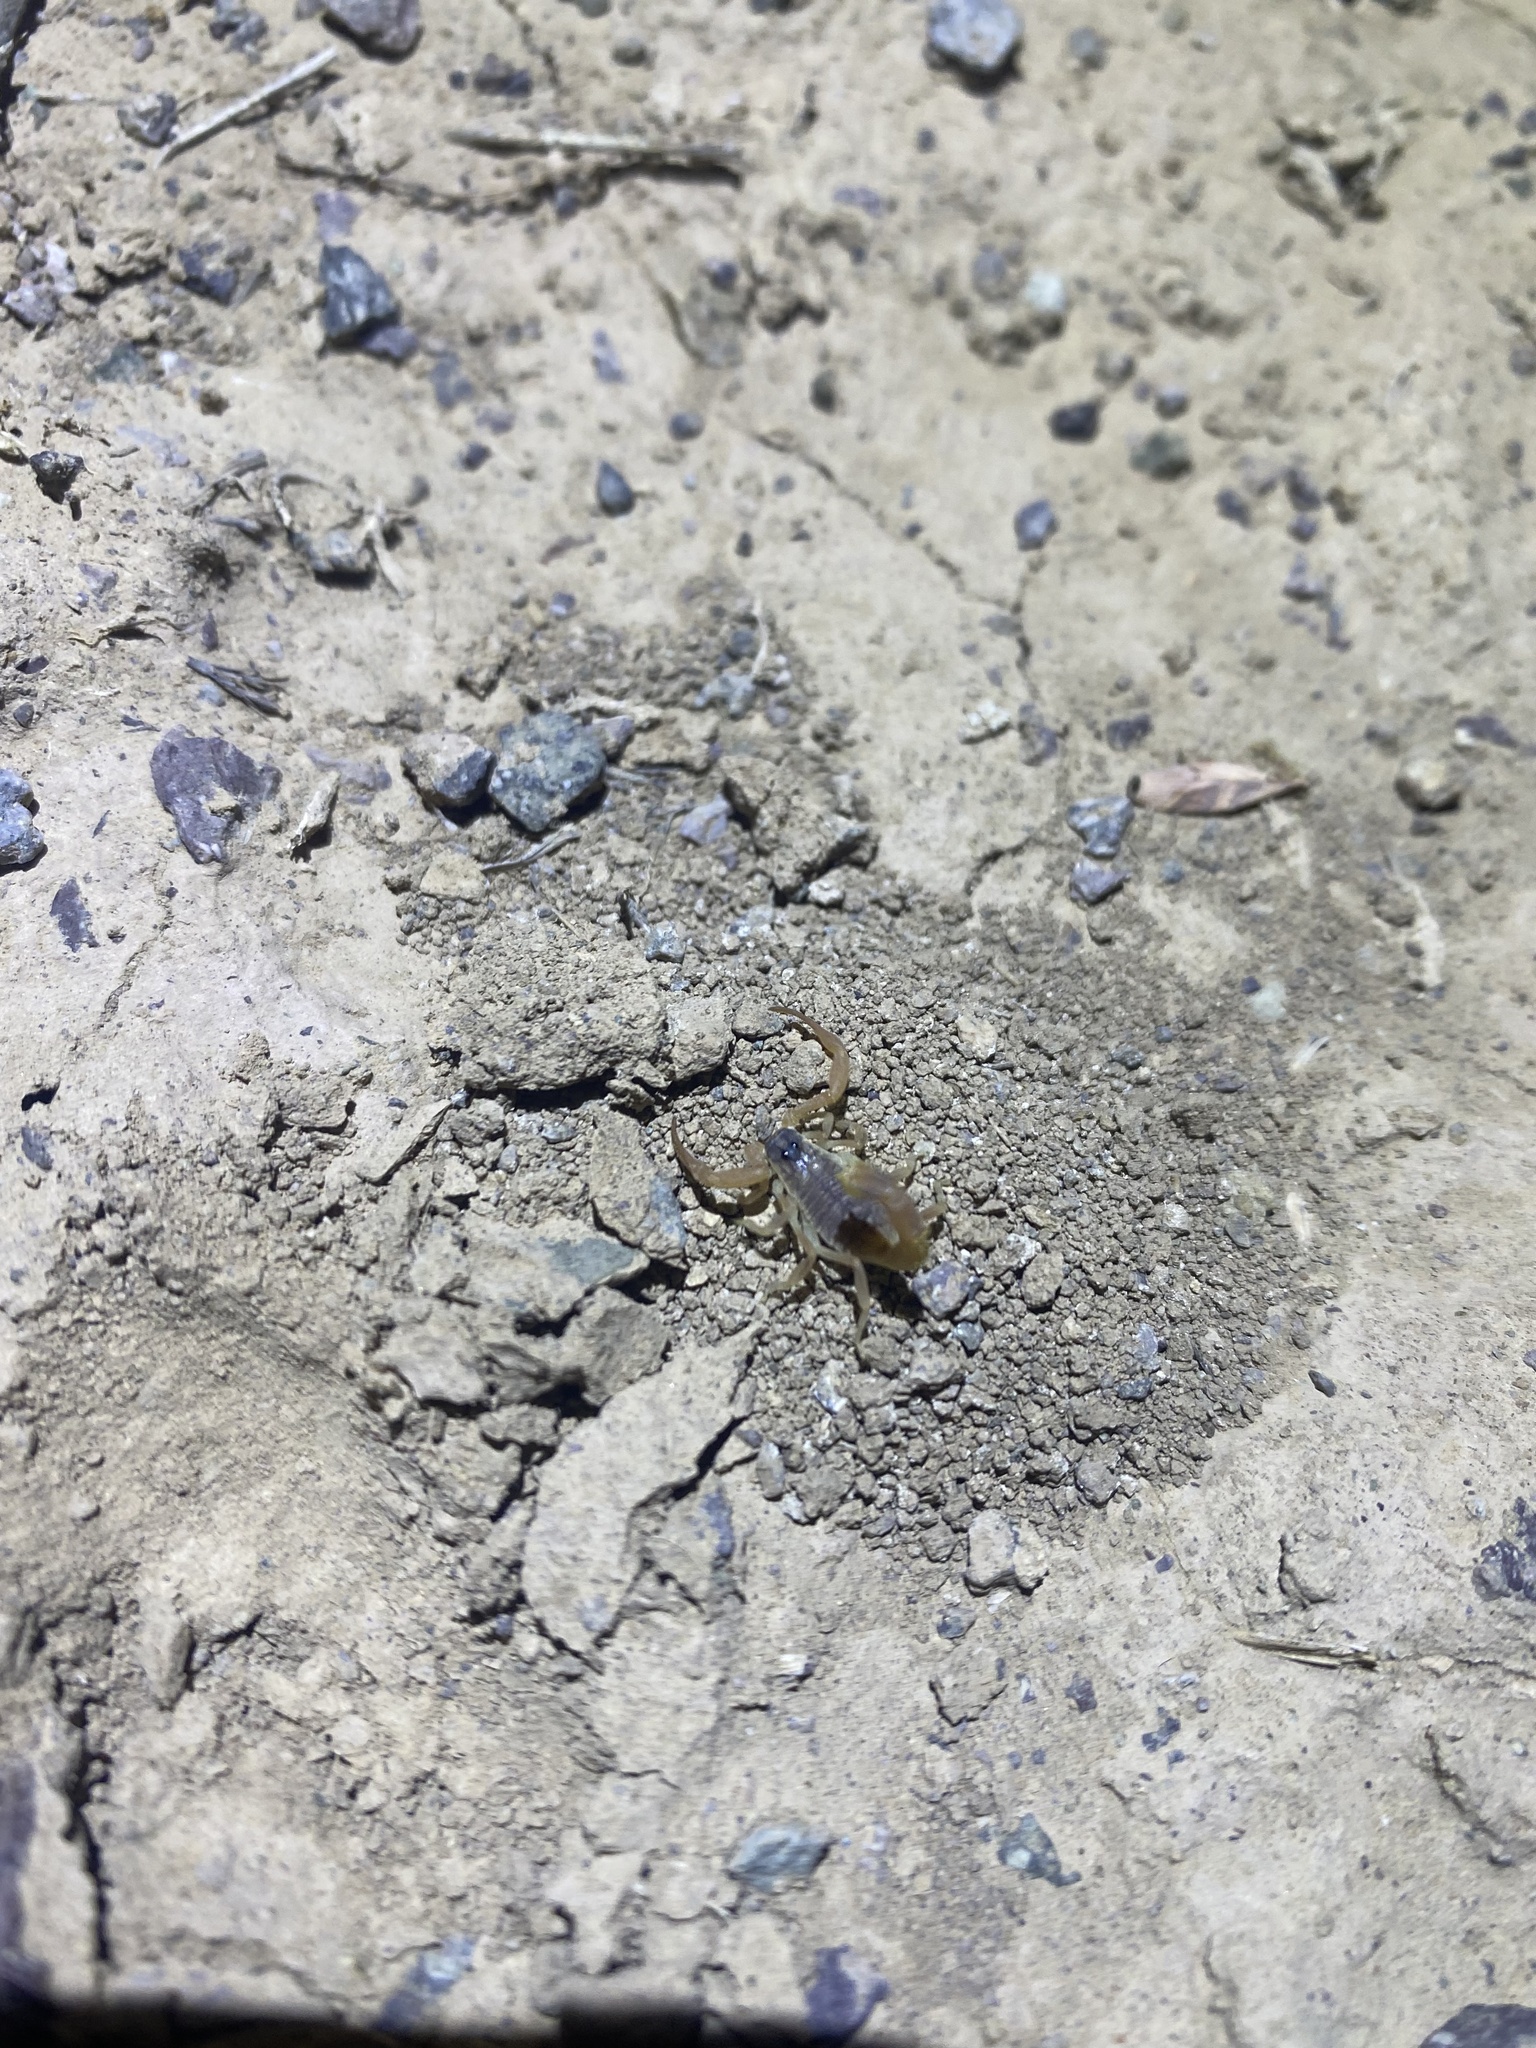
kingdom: Animalia
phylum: Arthropoda
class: Arachnida
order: Scorpiones
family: Buthidae
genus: Odontobuthus
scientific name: Odontobuthus doriae
